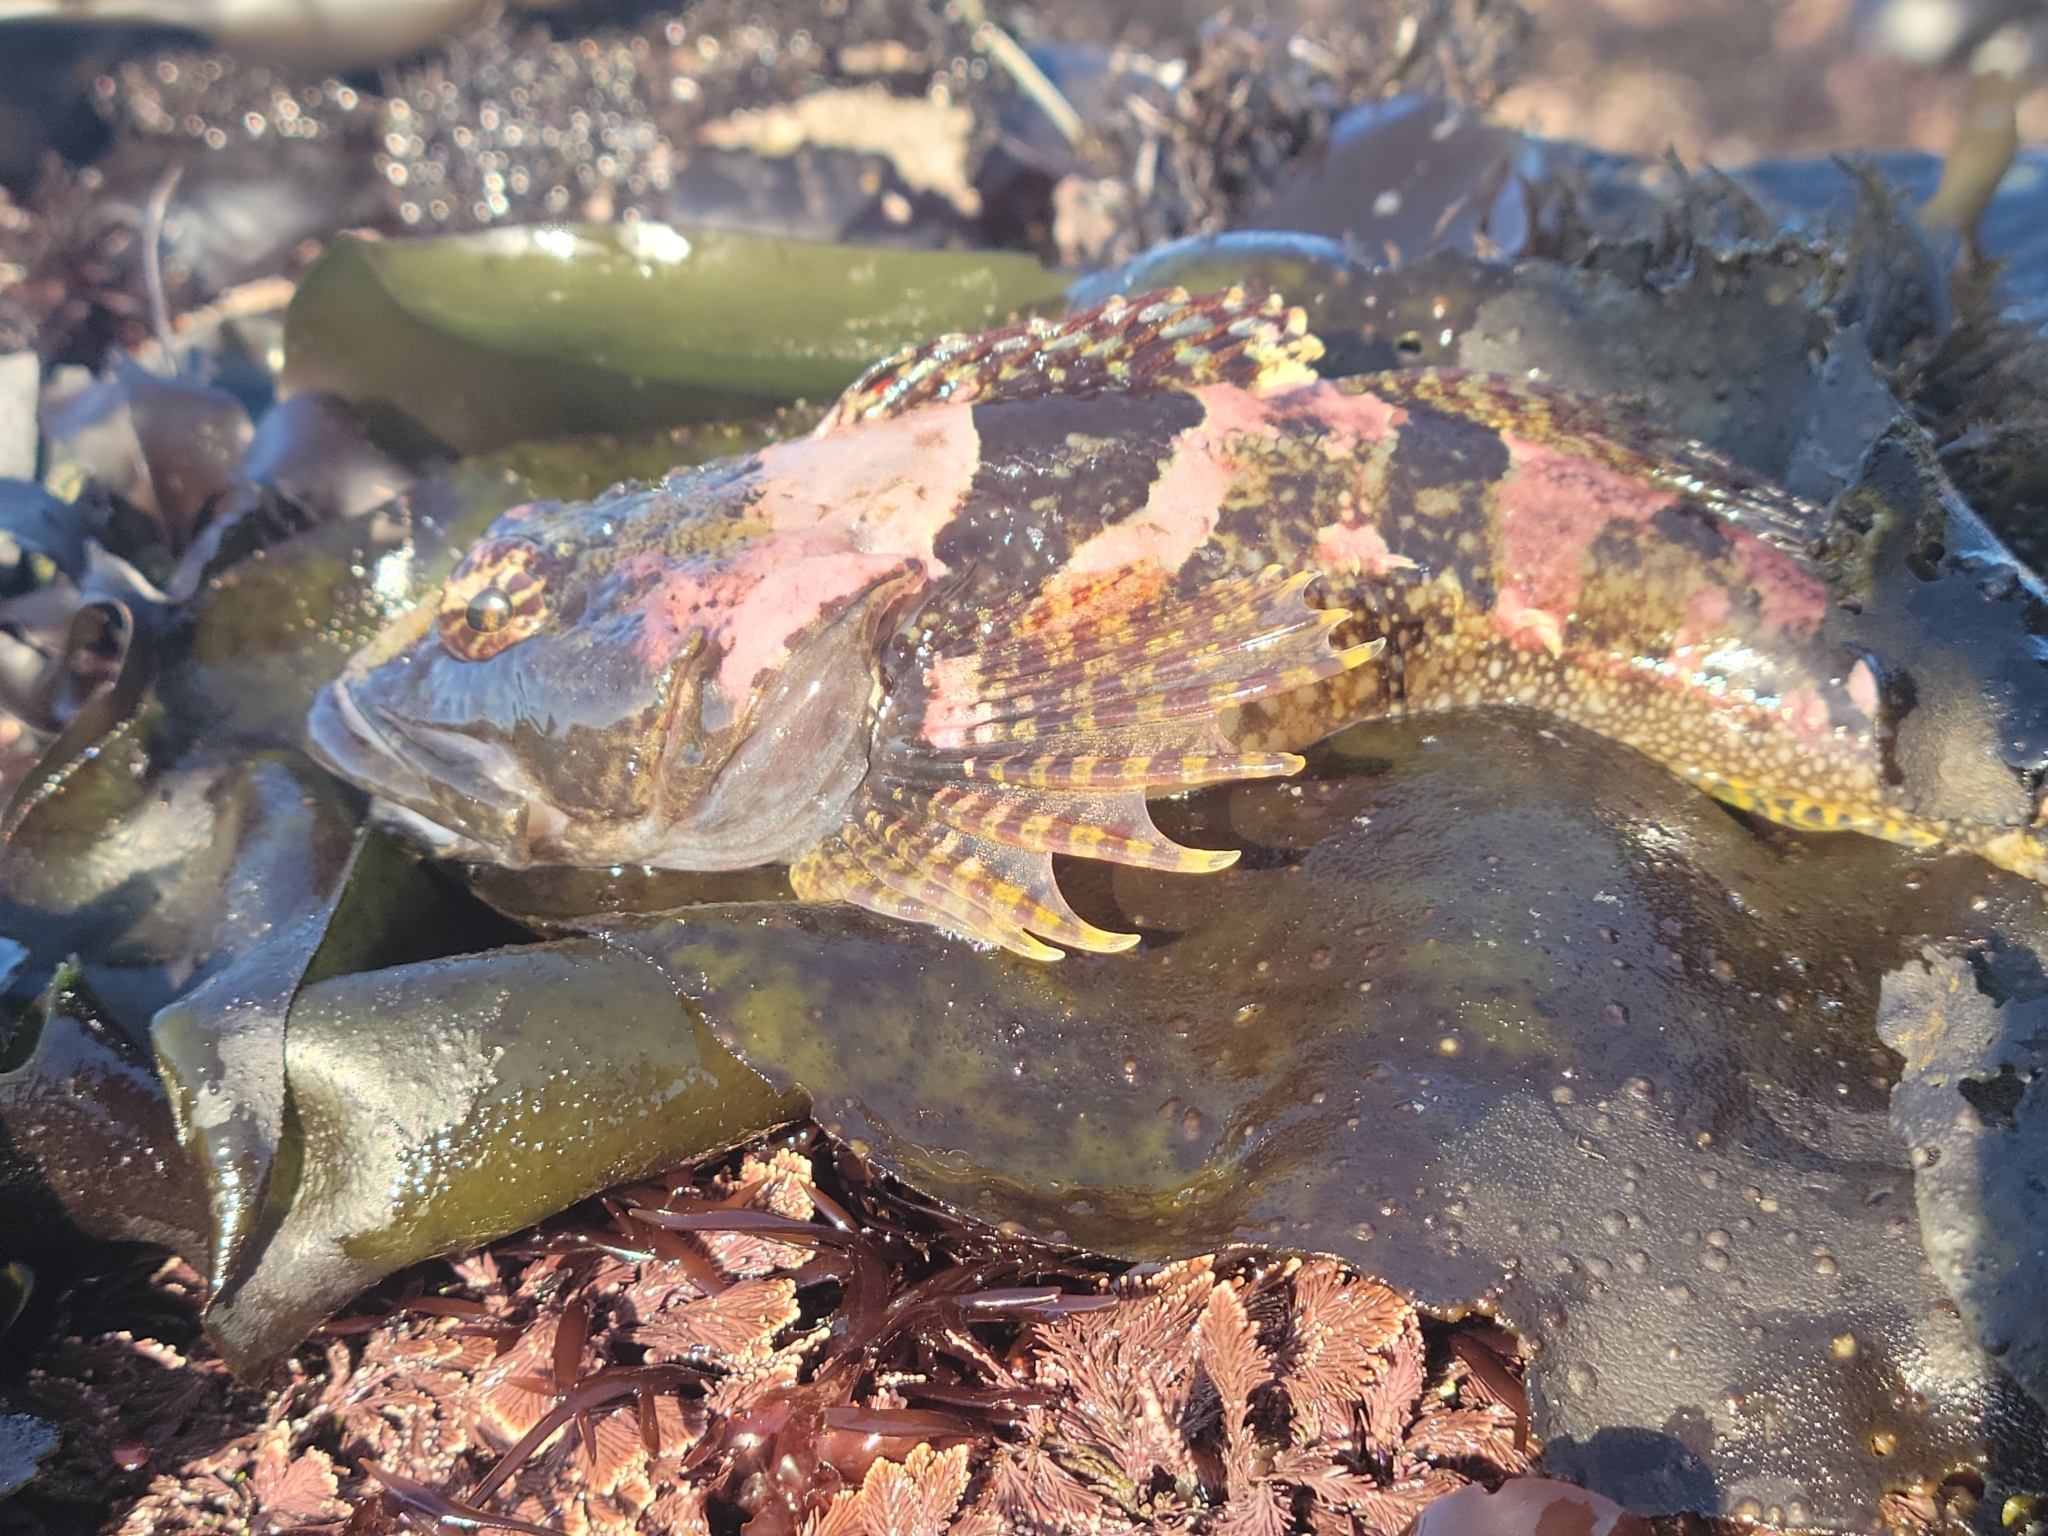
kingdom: Animalia
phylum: Chordata
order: Scorpaeniformes
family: Cottidae
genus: Artedius
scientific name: Artedius lateralis
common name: Smooth-head sculpin
